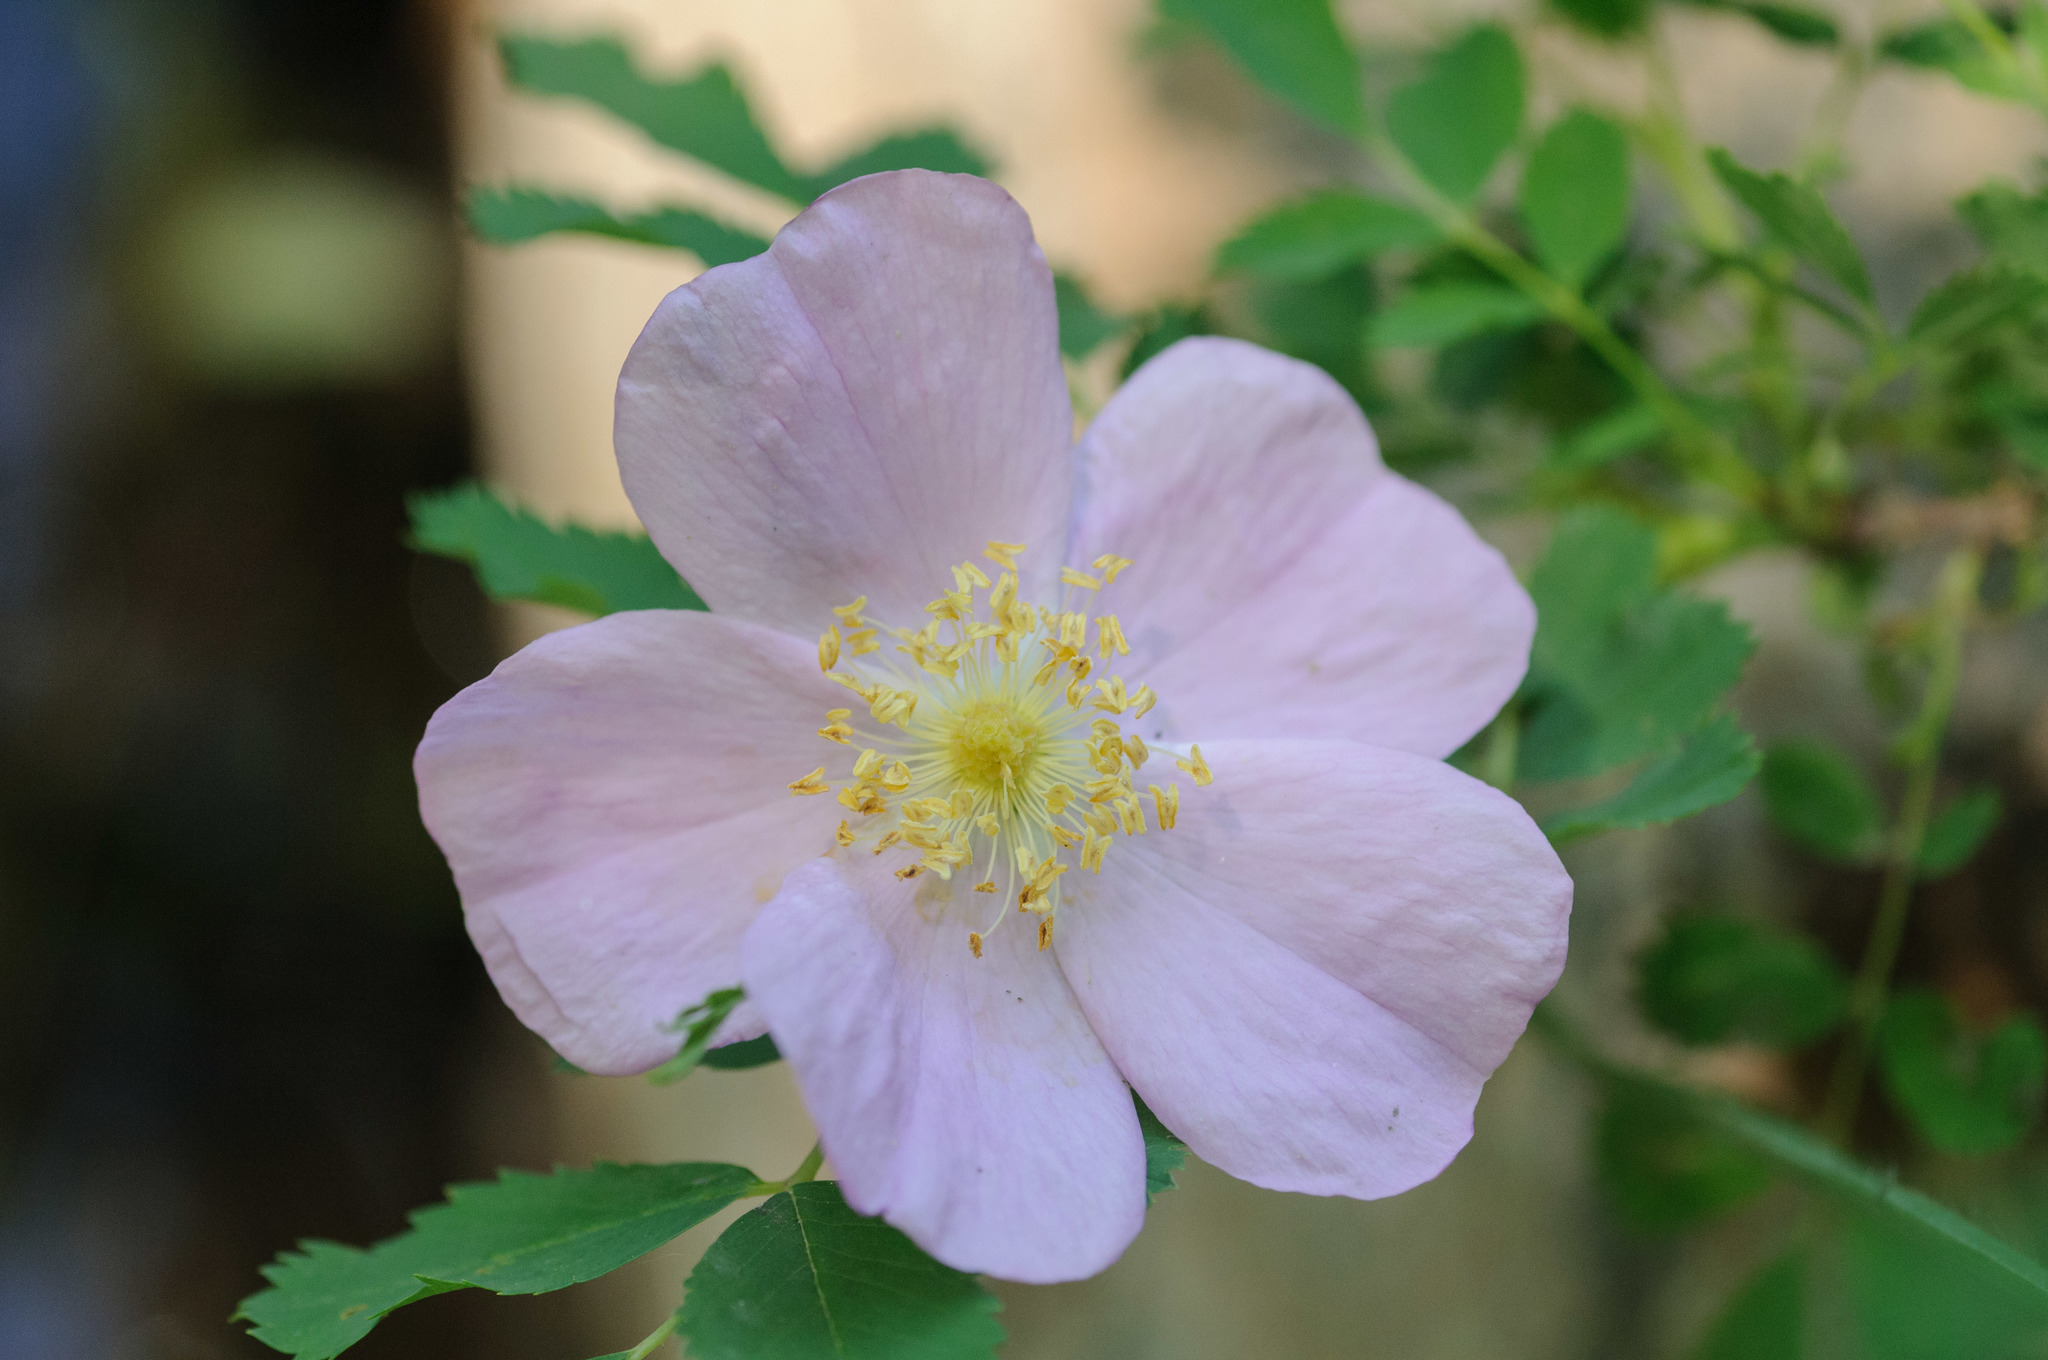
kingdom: Plantae
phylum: Tracheophyta
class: Magnoliopsida
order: Rosales
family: Rosaceae
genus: Rosa
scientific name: Rosa woodsii
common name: Woods's rose
